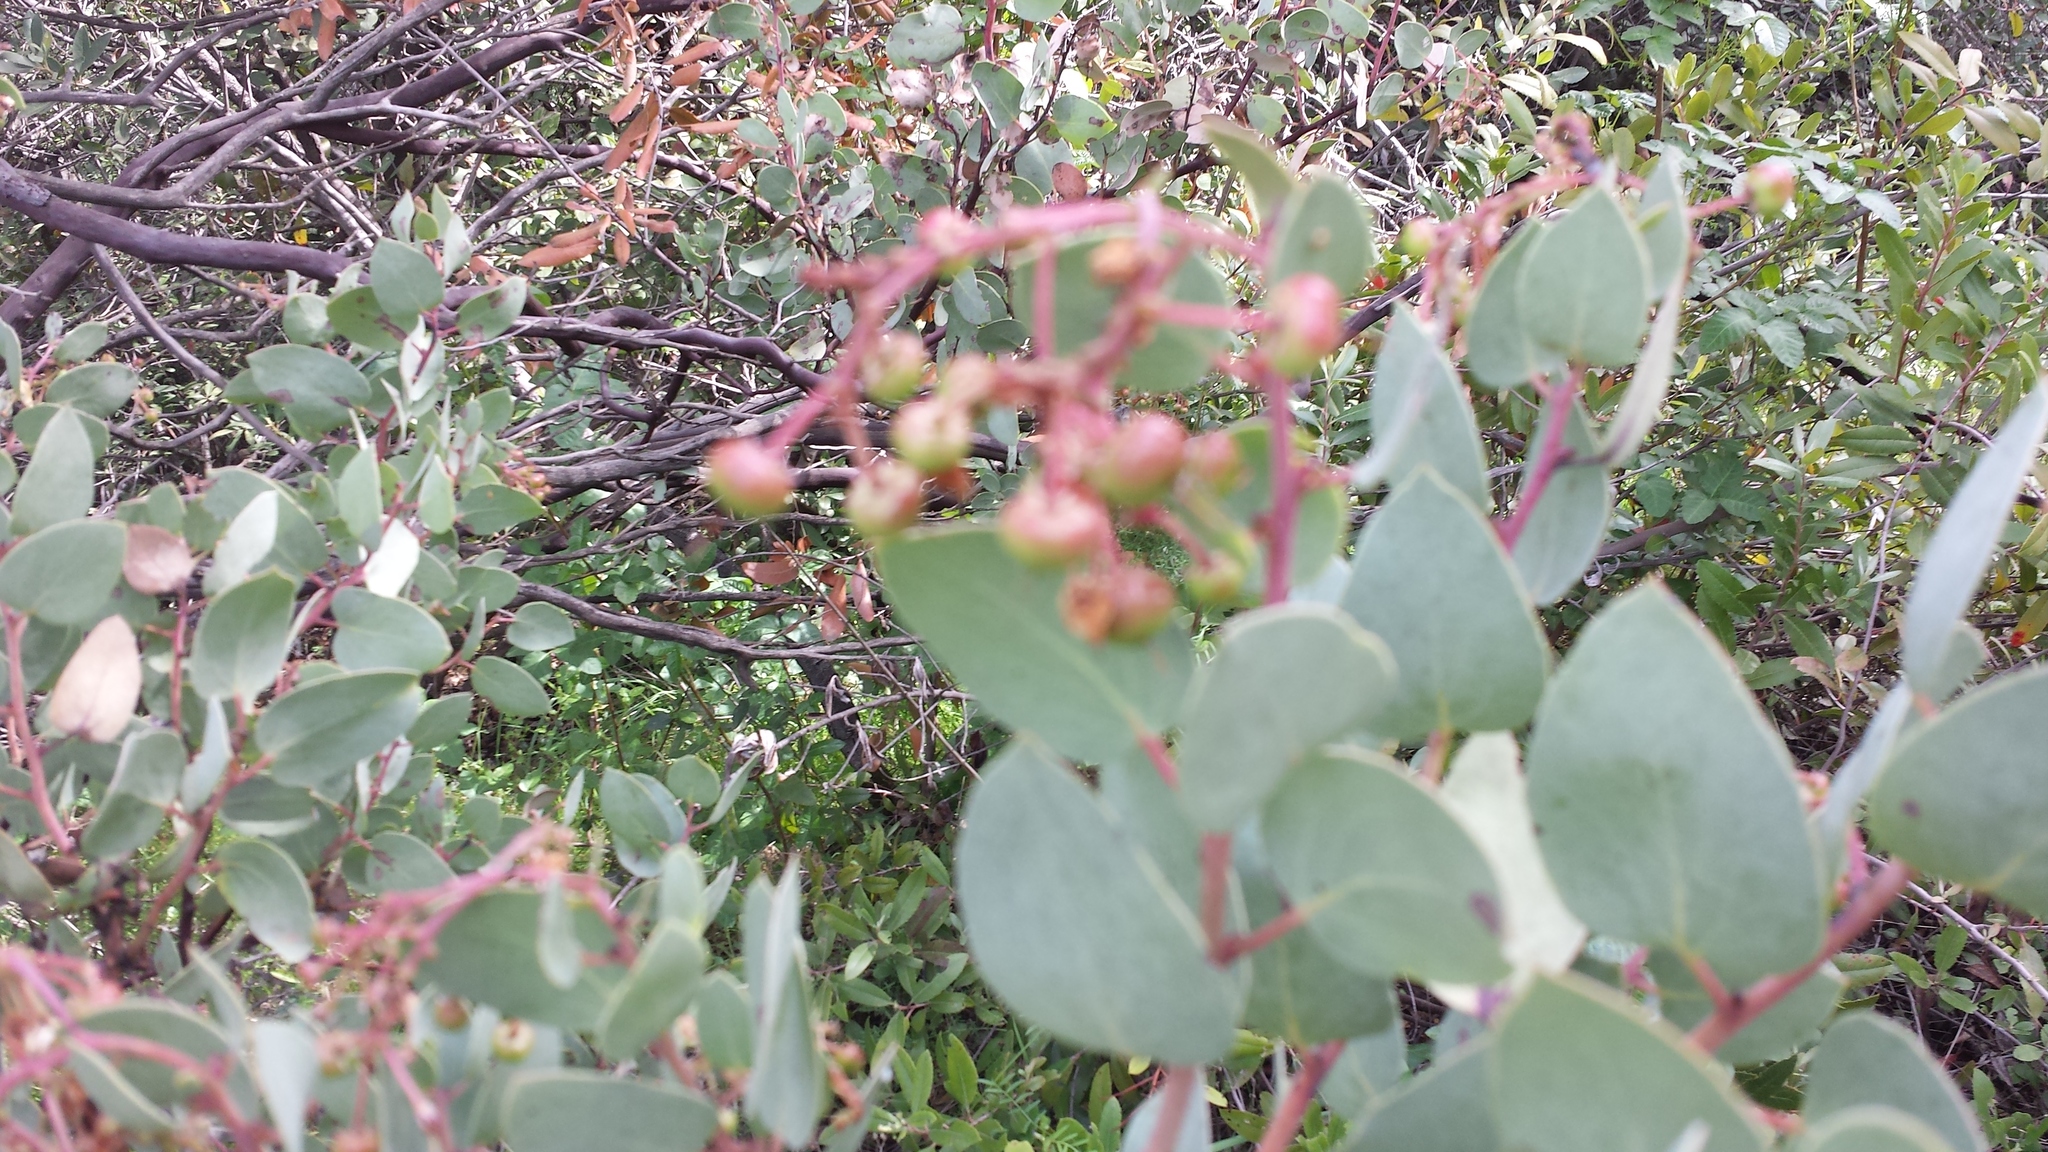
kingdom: Plantae
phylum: Tracheophyta
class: Magnoliopsida
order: Ericales
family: Ericaceae
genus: Arctostaphylos
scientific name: Arctostaphylos viscida
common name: White-leaf manzanita
